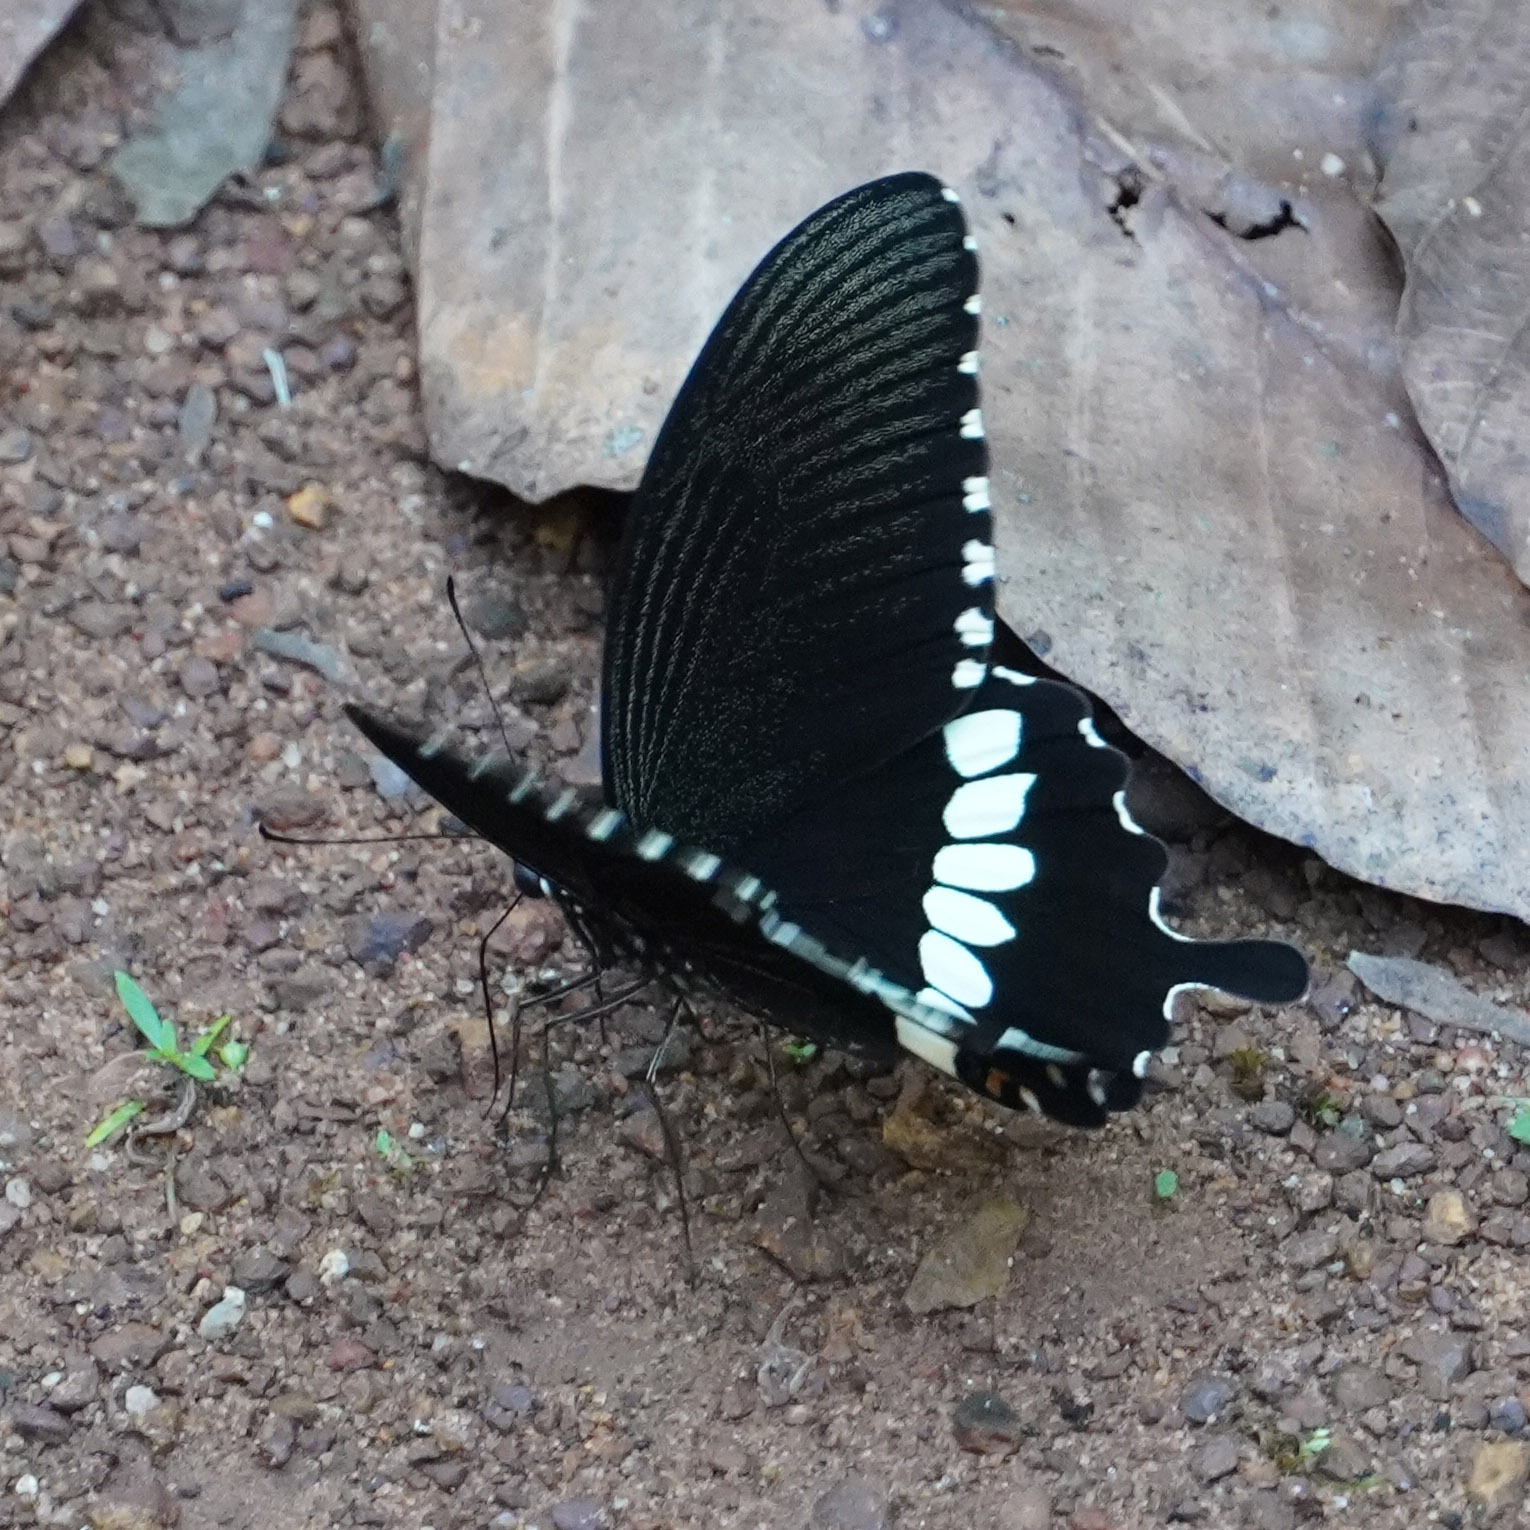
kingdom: Animalia
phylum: Arthropoda
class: Insecta
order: Lepidoptera
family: Papilionidae
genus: Papilio
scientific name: Papilio polytes
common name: Common mormon
